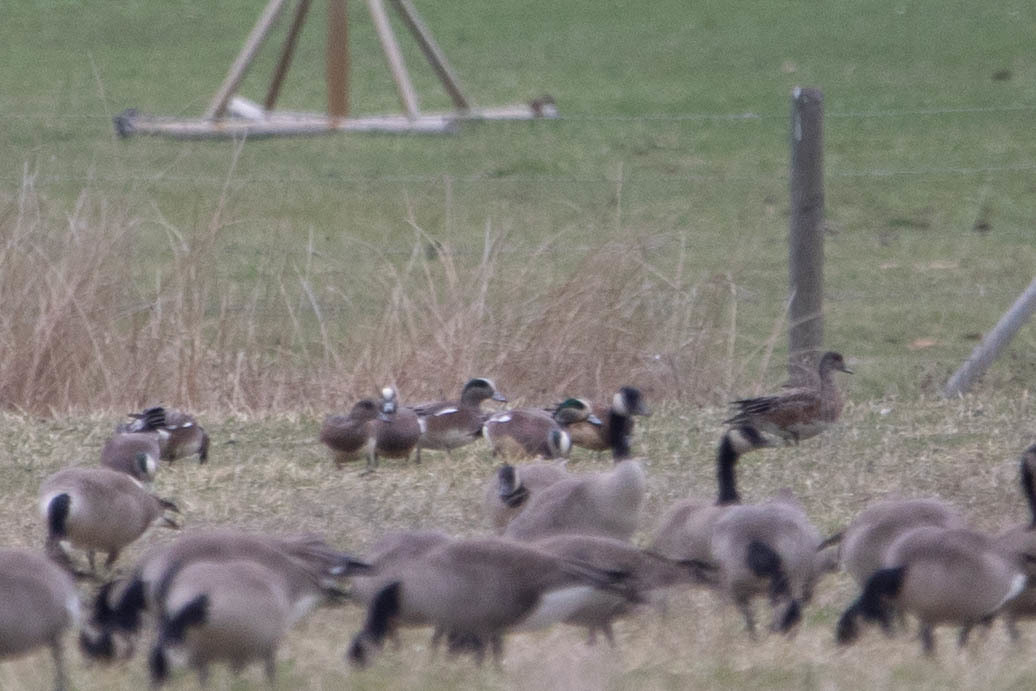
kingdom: Animalia
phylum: Chordata
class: Aves
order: Anseriformes
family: Anatidae
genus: Mareca
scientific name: Mareca americana
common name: American wigeon
